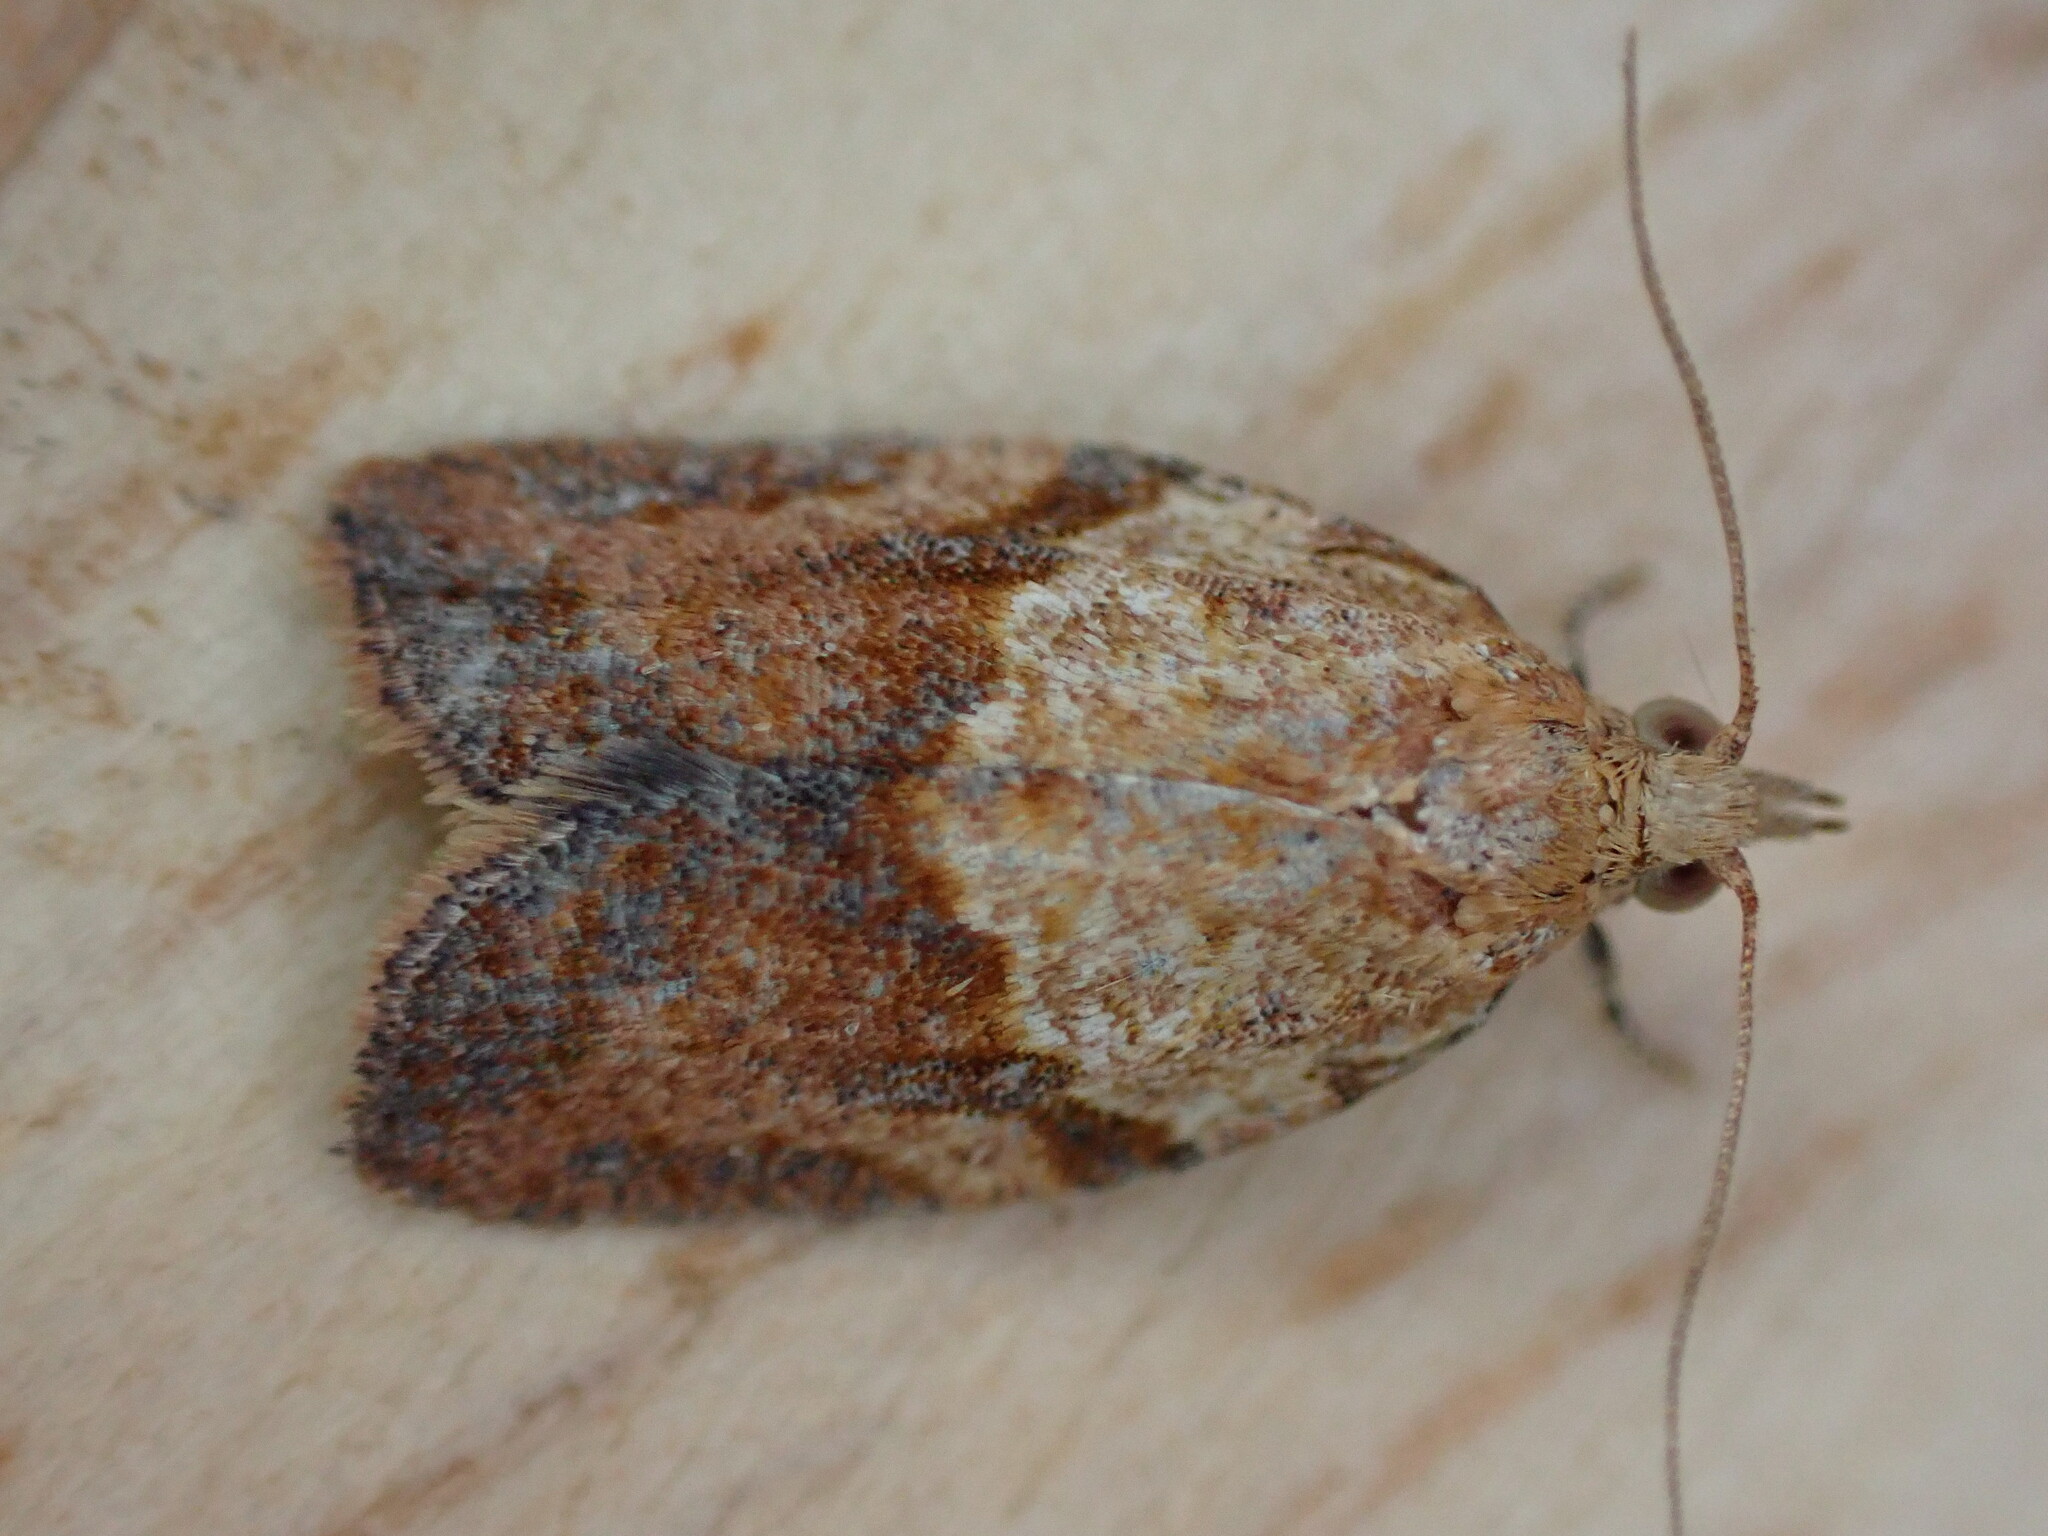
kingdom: Animalia
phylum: Arthropoda
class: Insecta
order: Lepidoptera
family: Tortricidae
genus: Epiphyas
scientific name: Epiphyas postvittana
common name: Light brown apple moth
